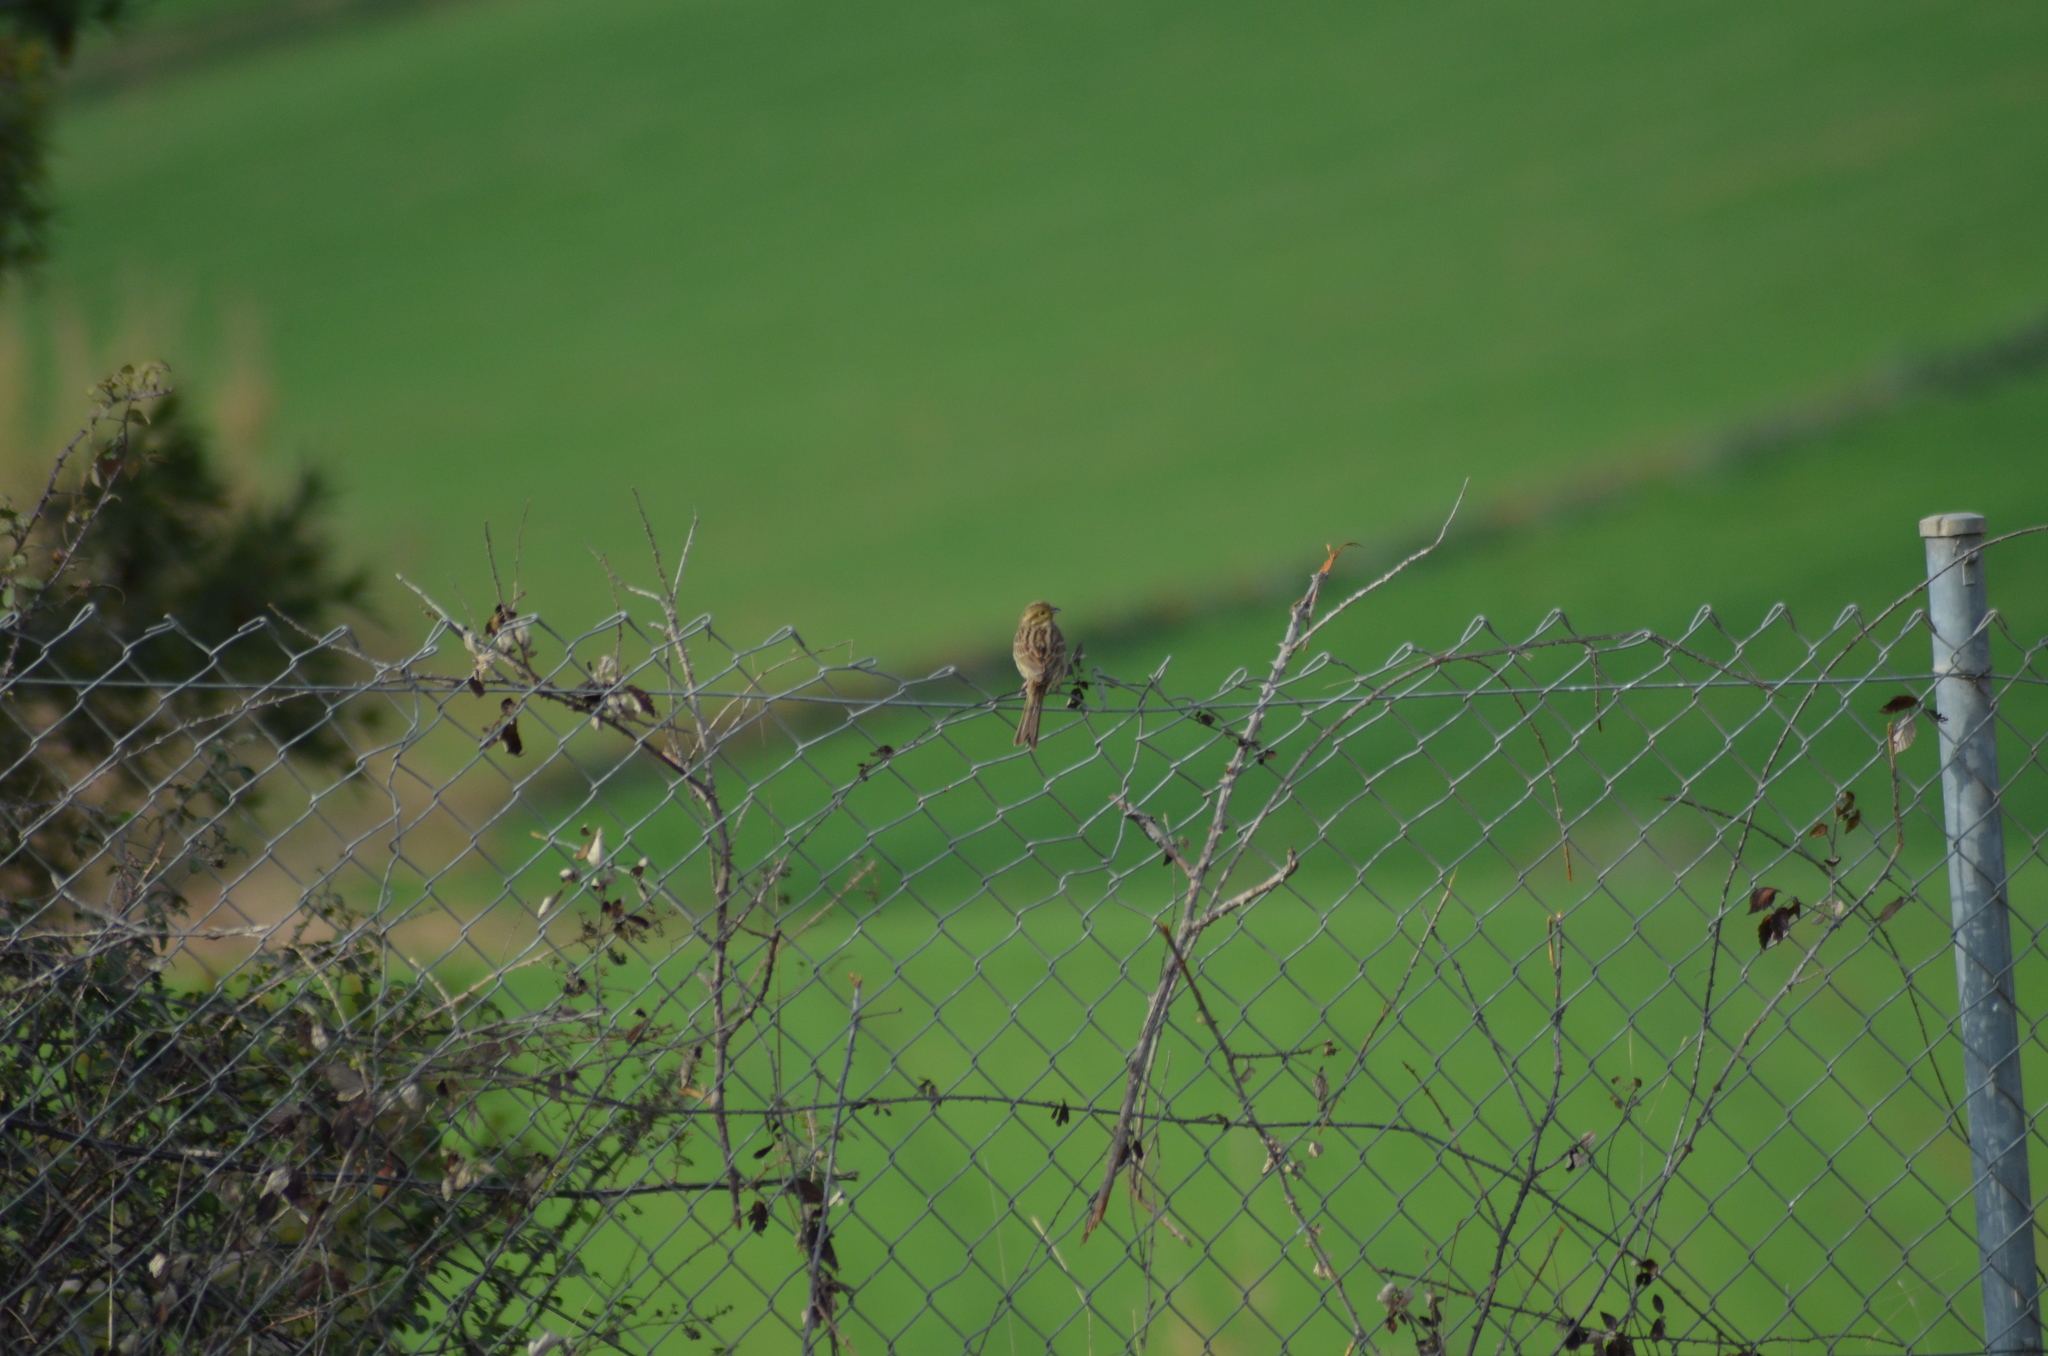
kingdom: Animalia
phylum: Chordata
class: Aves
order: Passeriformes
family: Emberizidae
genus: Emberiza
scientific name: Emberiza cirlus
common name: Cirl bunting
